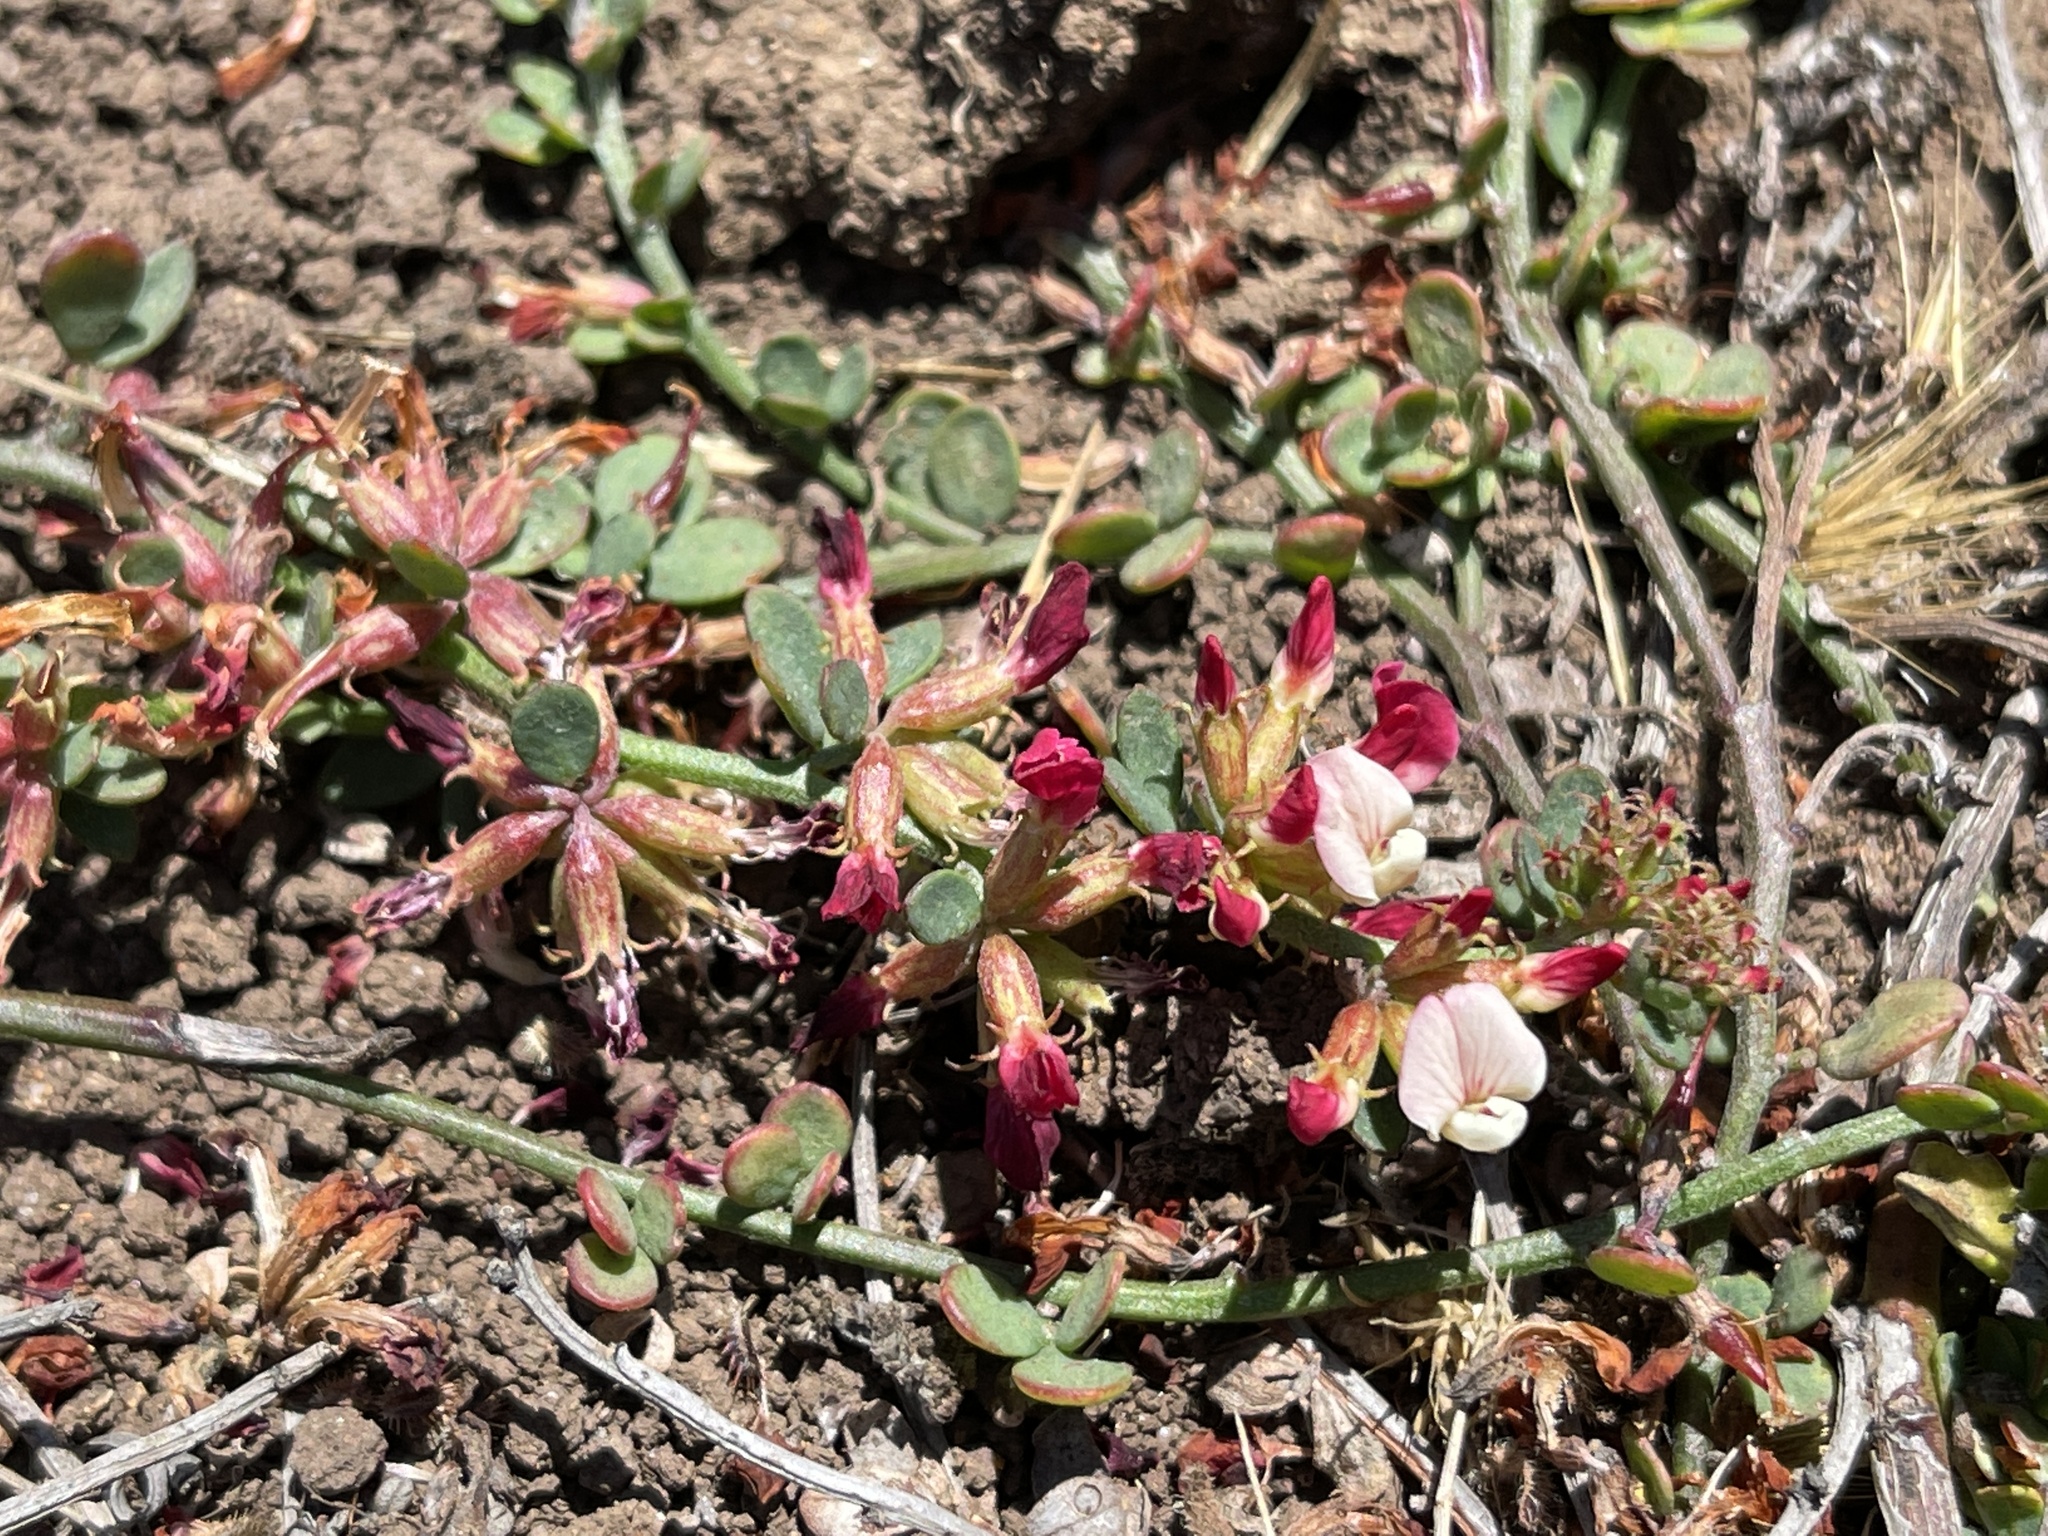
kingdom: Plantae
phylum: Tracheophyta
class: Magnoliopsida
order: Fabales
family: Fabaceae
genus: Acmispon
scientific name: Acmispon cytisoides
